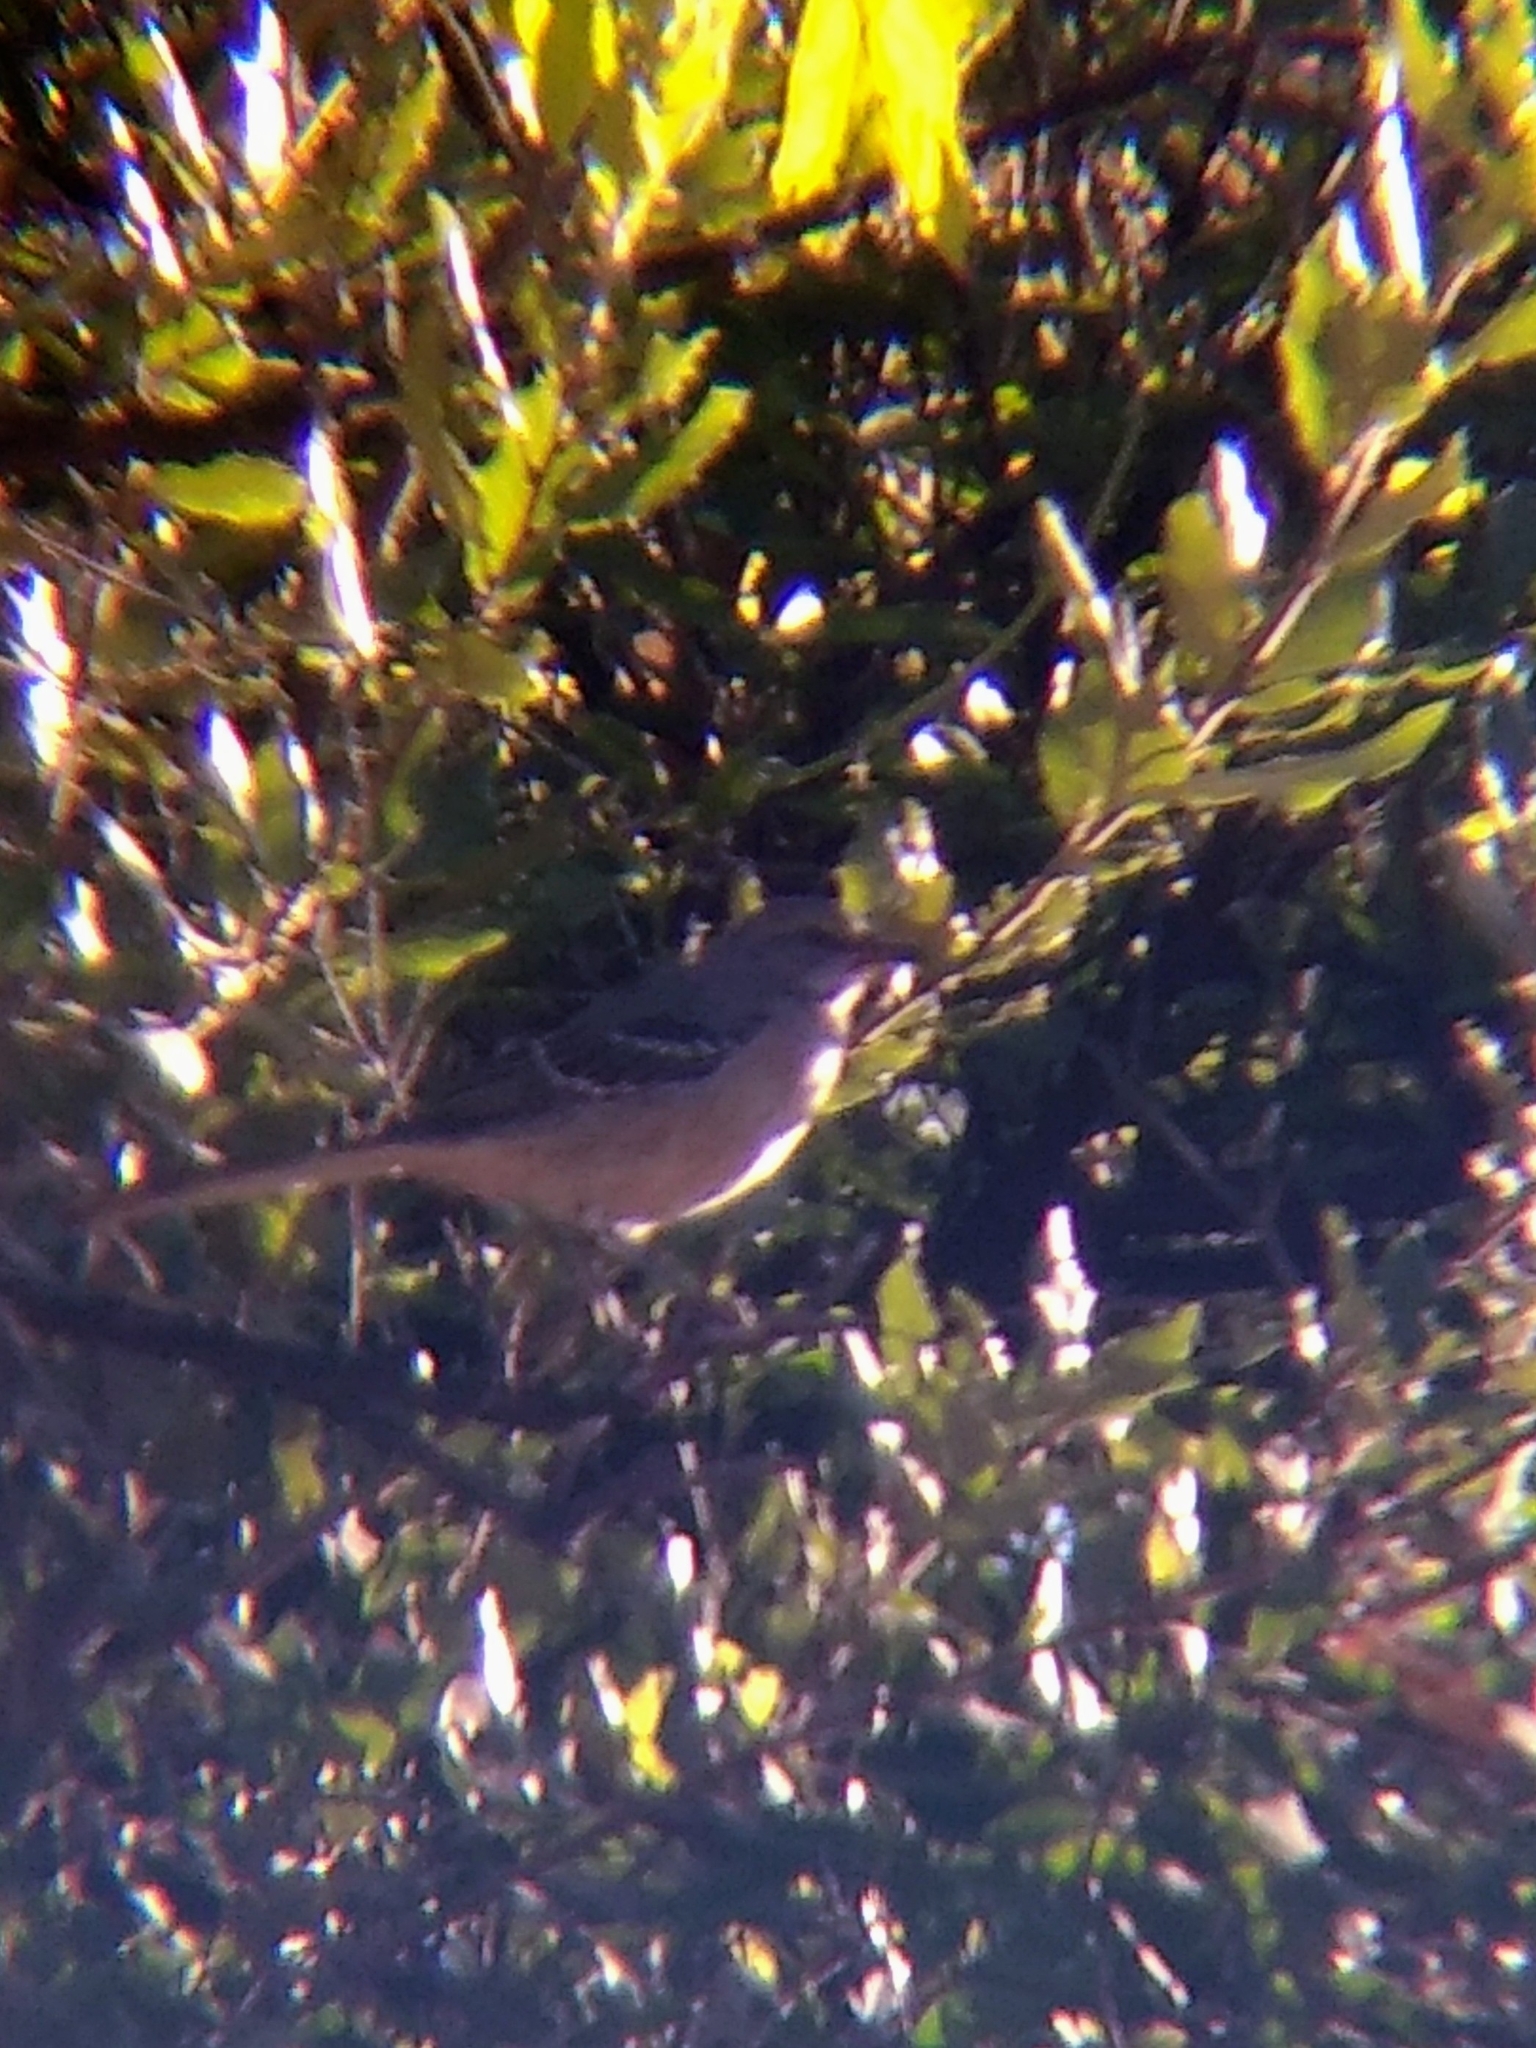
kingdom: Animalia
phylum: Chordata
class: Aves
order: Passeriformes
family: Mimidae
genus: Mimus
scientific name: Mimus polyglottos
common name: Northern mockingbird
